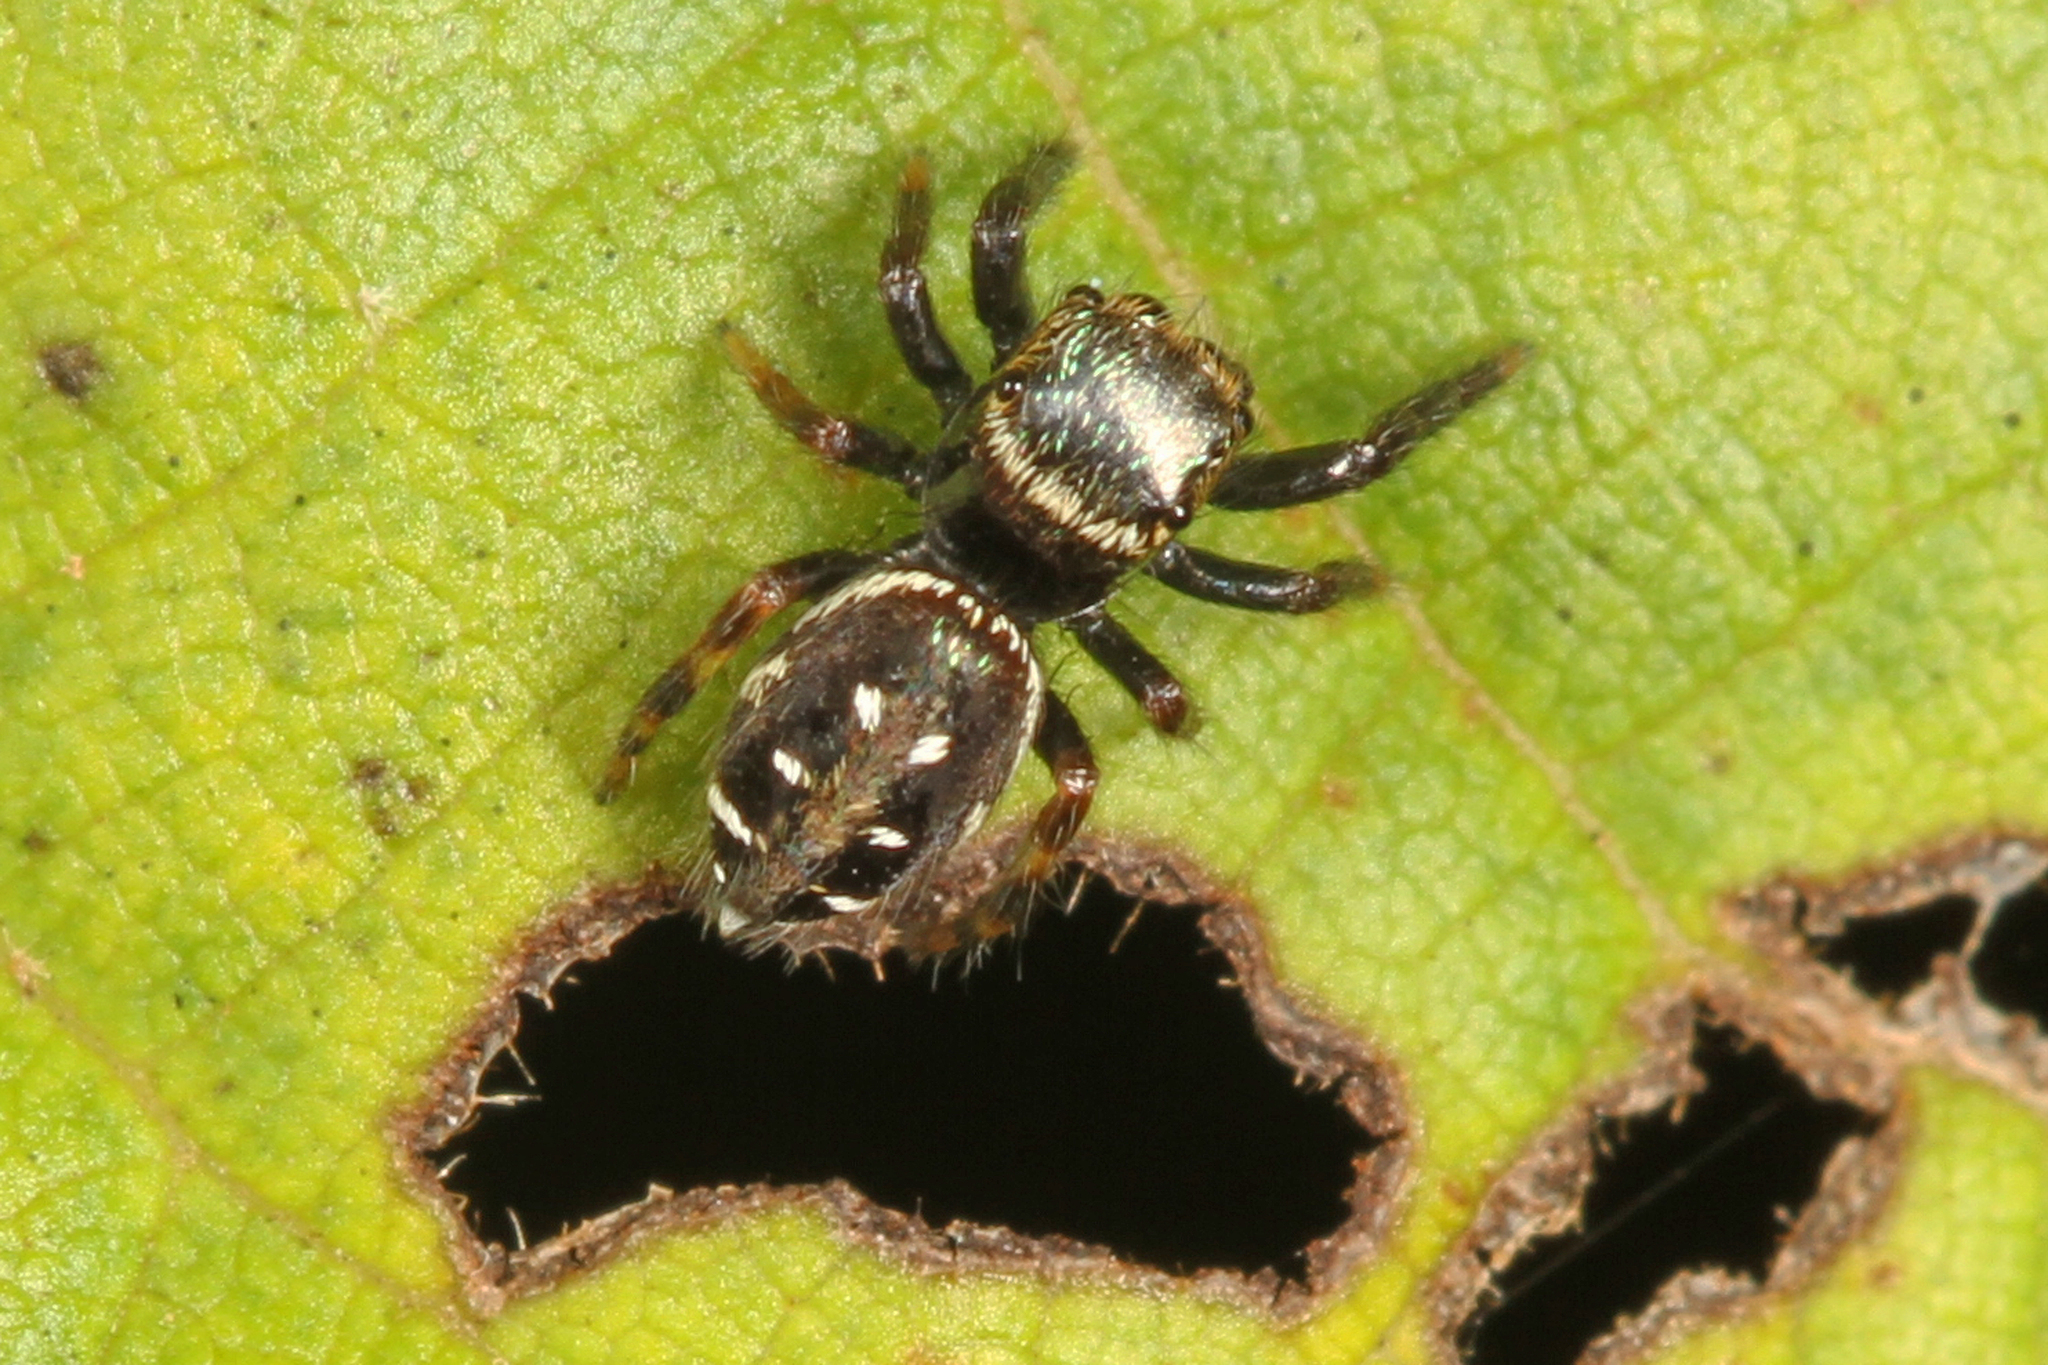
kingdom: Animalia
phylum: Arthropoda
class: Arachnida
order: Araneae
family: Salticidae
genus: Paraphidippus
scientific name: Paraphidippus aurantius
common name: Jumping spiders
